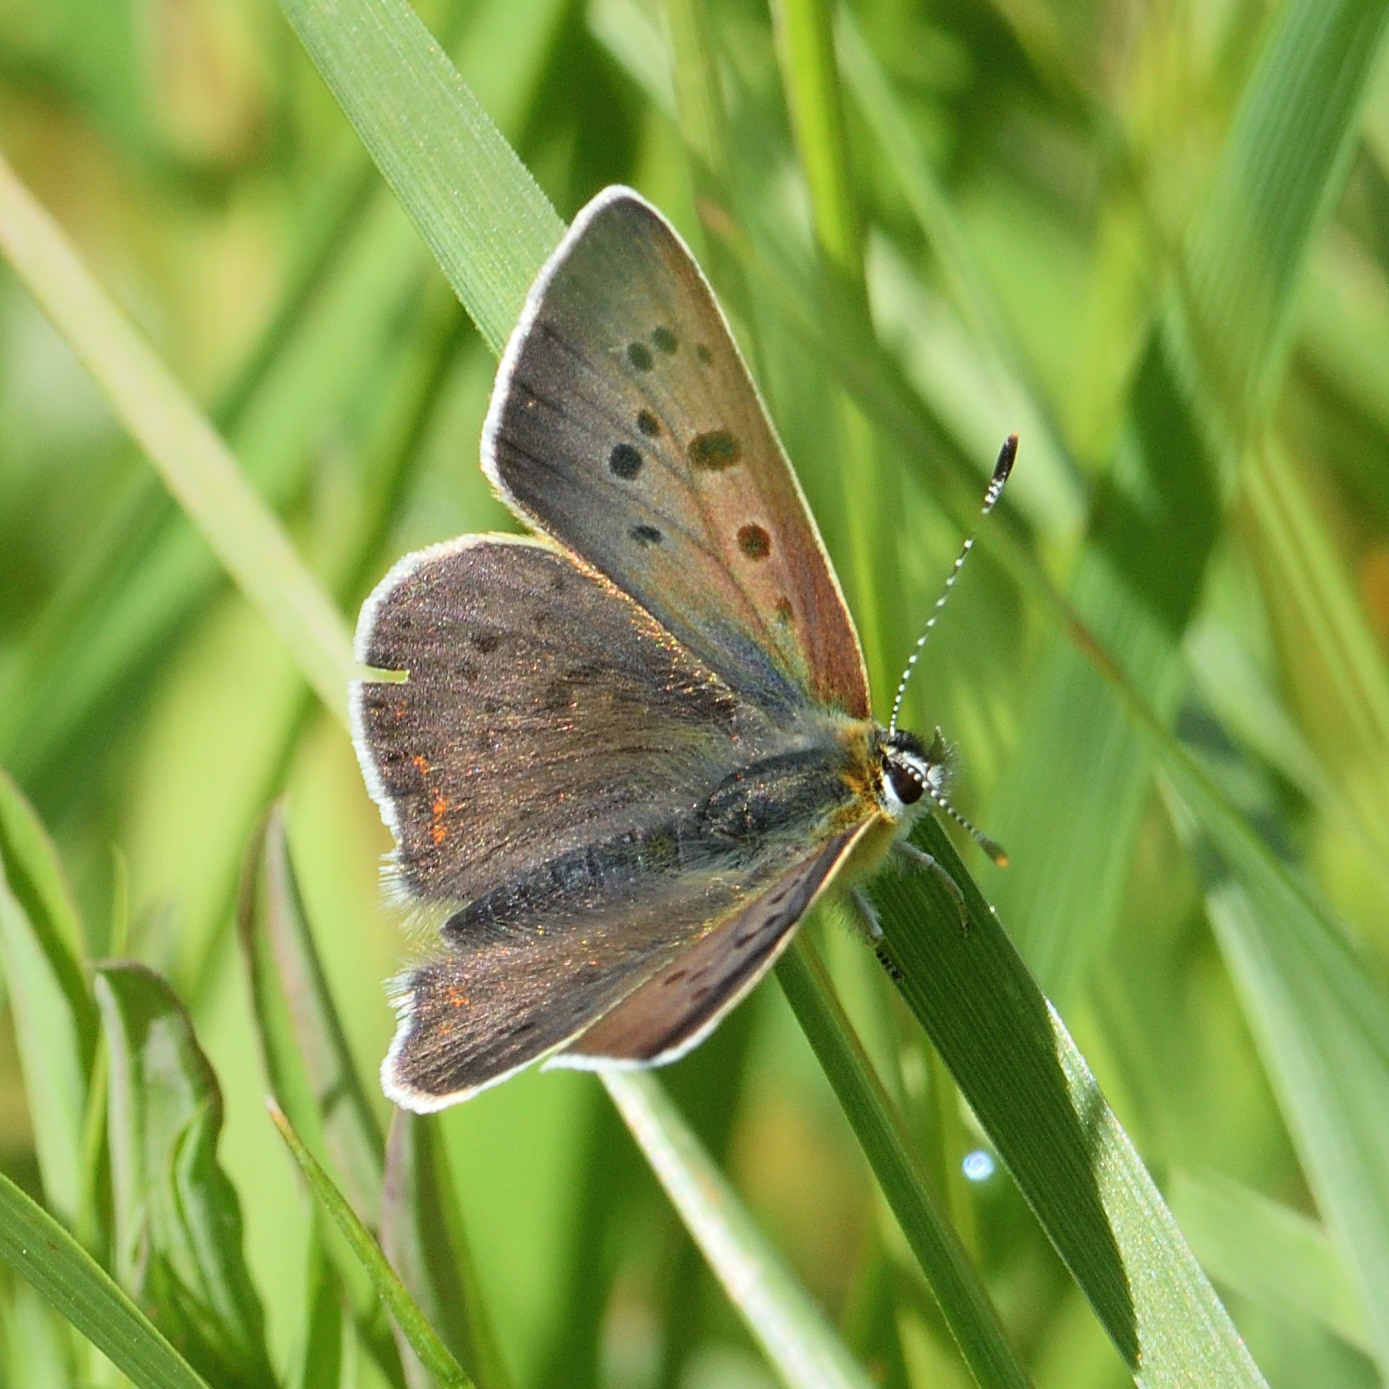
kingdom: Animalia
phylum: Arthropoda
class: Insecta
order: Lepidoptera
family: Lycaenidae
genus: Loweia
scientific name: Loweia tityrus
